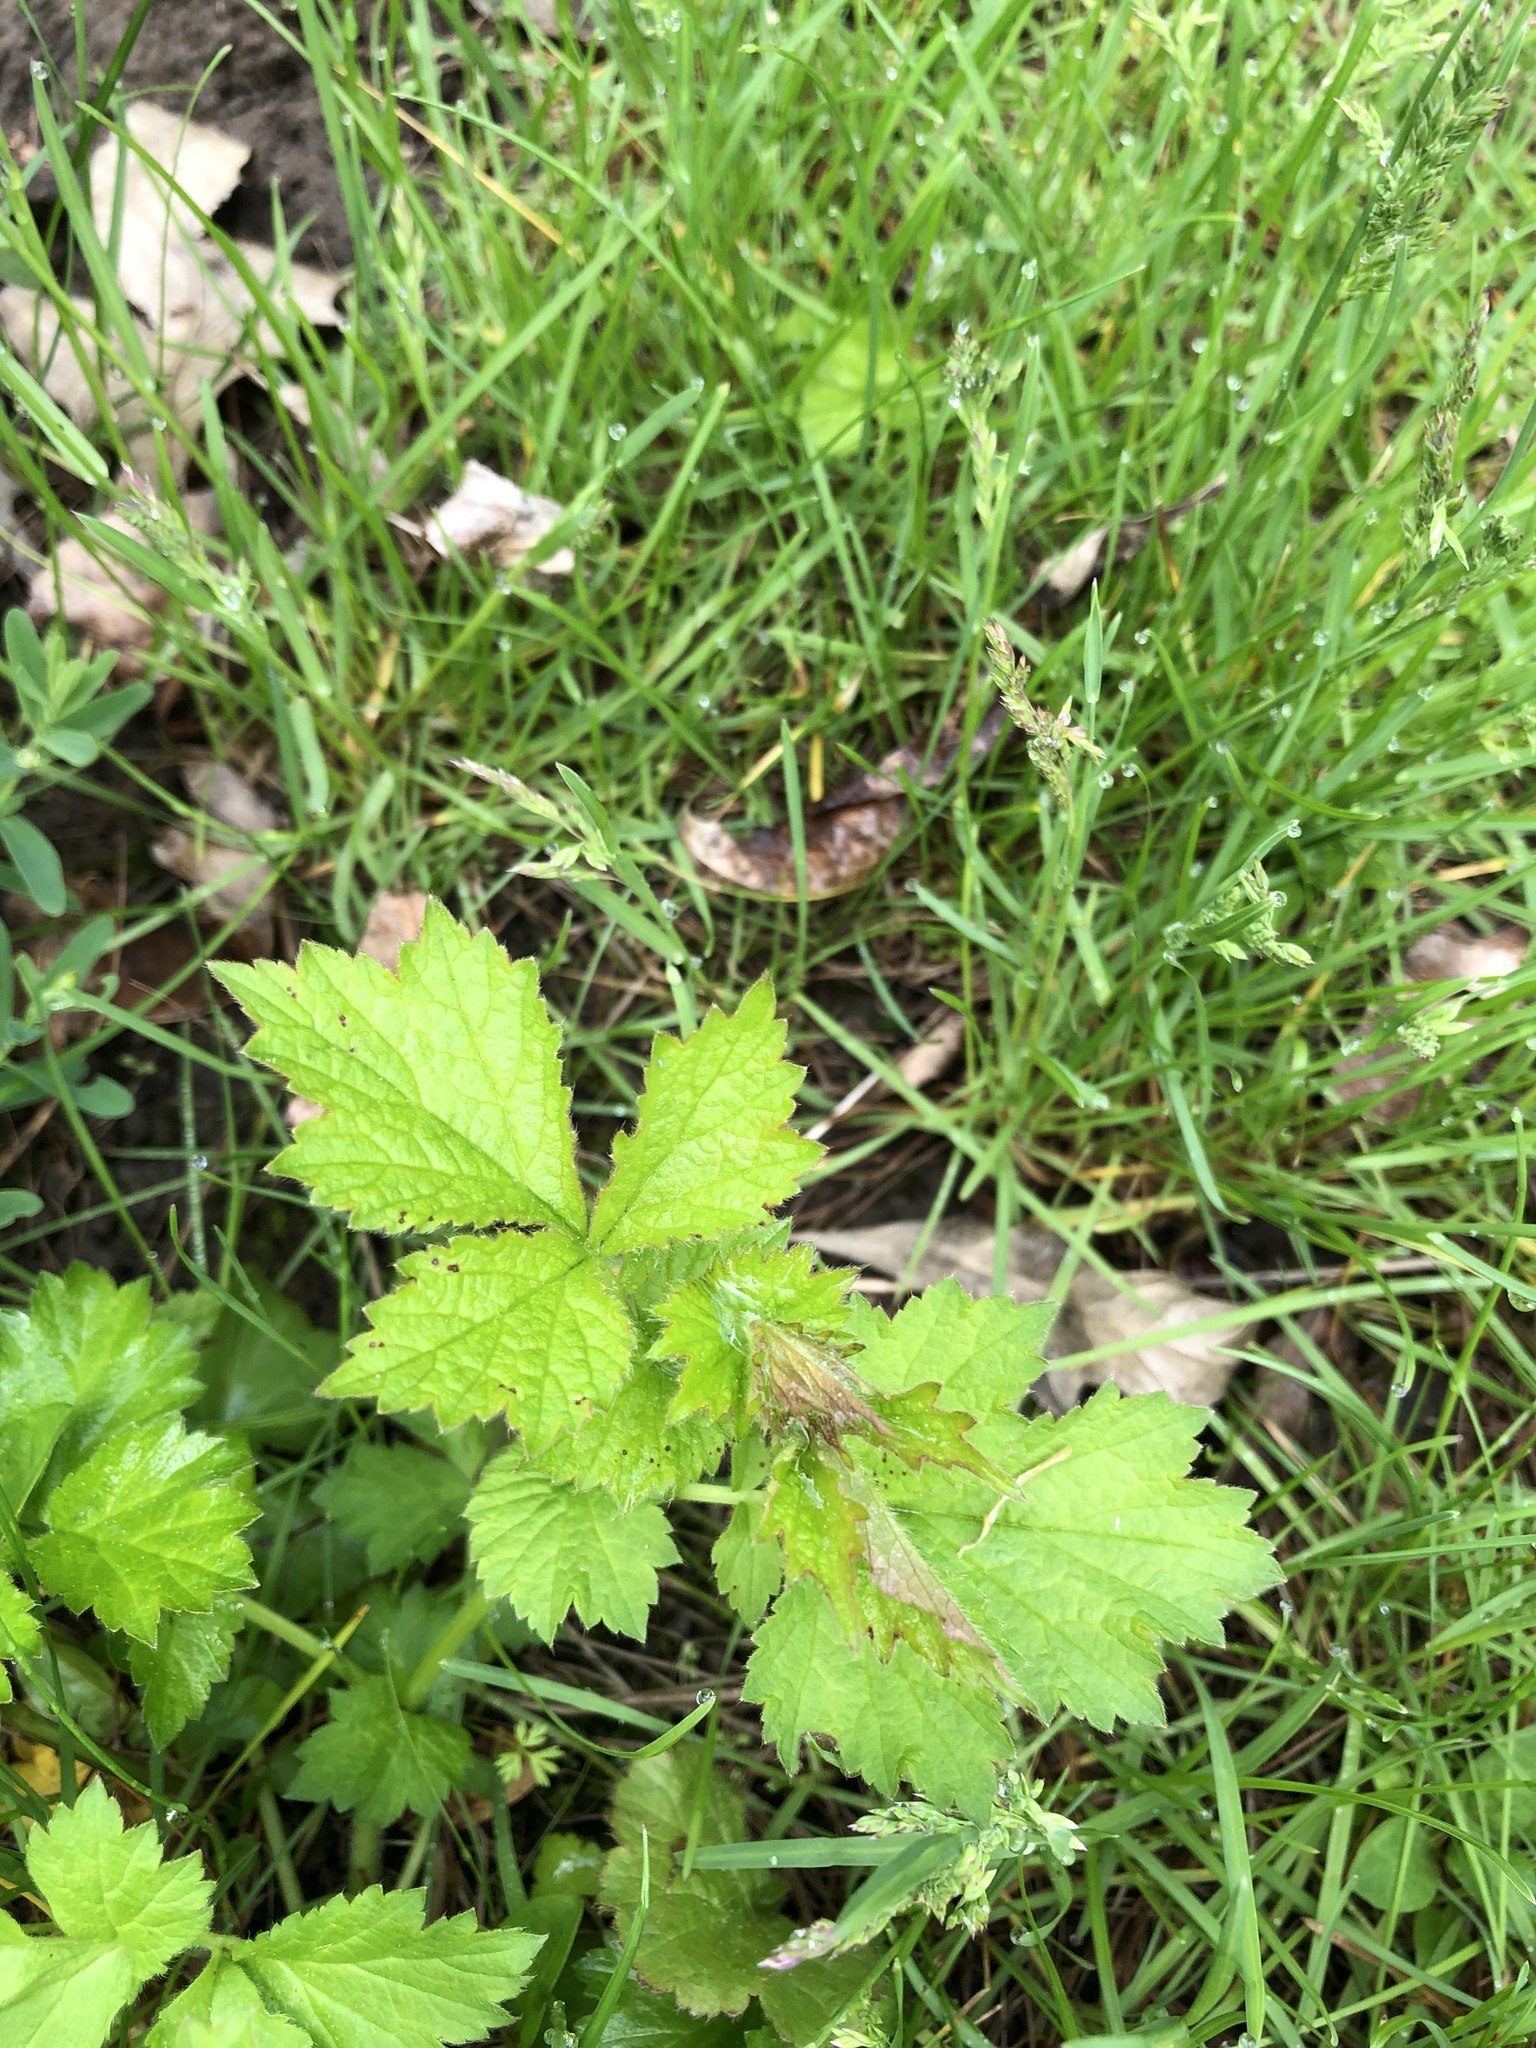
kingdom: Plantae
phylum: Tracheophyta
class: Magnoliopsida
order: Rosales
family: Rosaceae
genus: Geum
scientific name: Geum urbanum
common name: Wood avens
